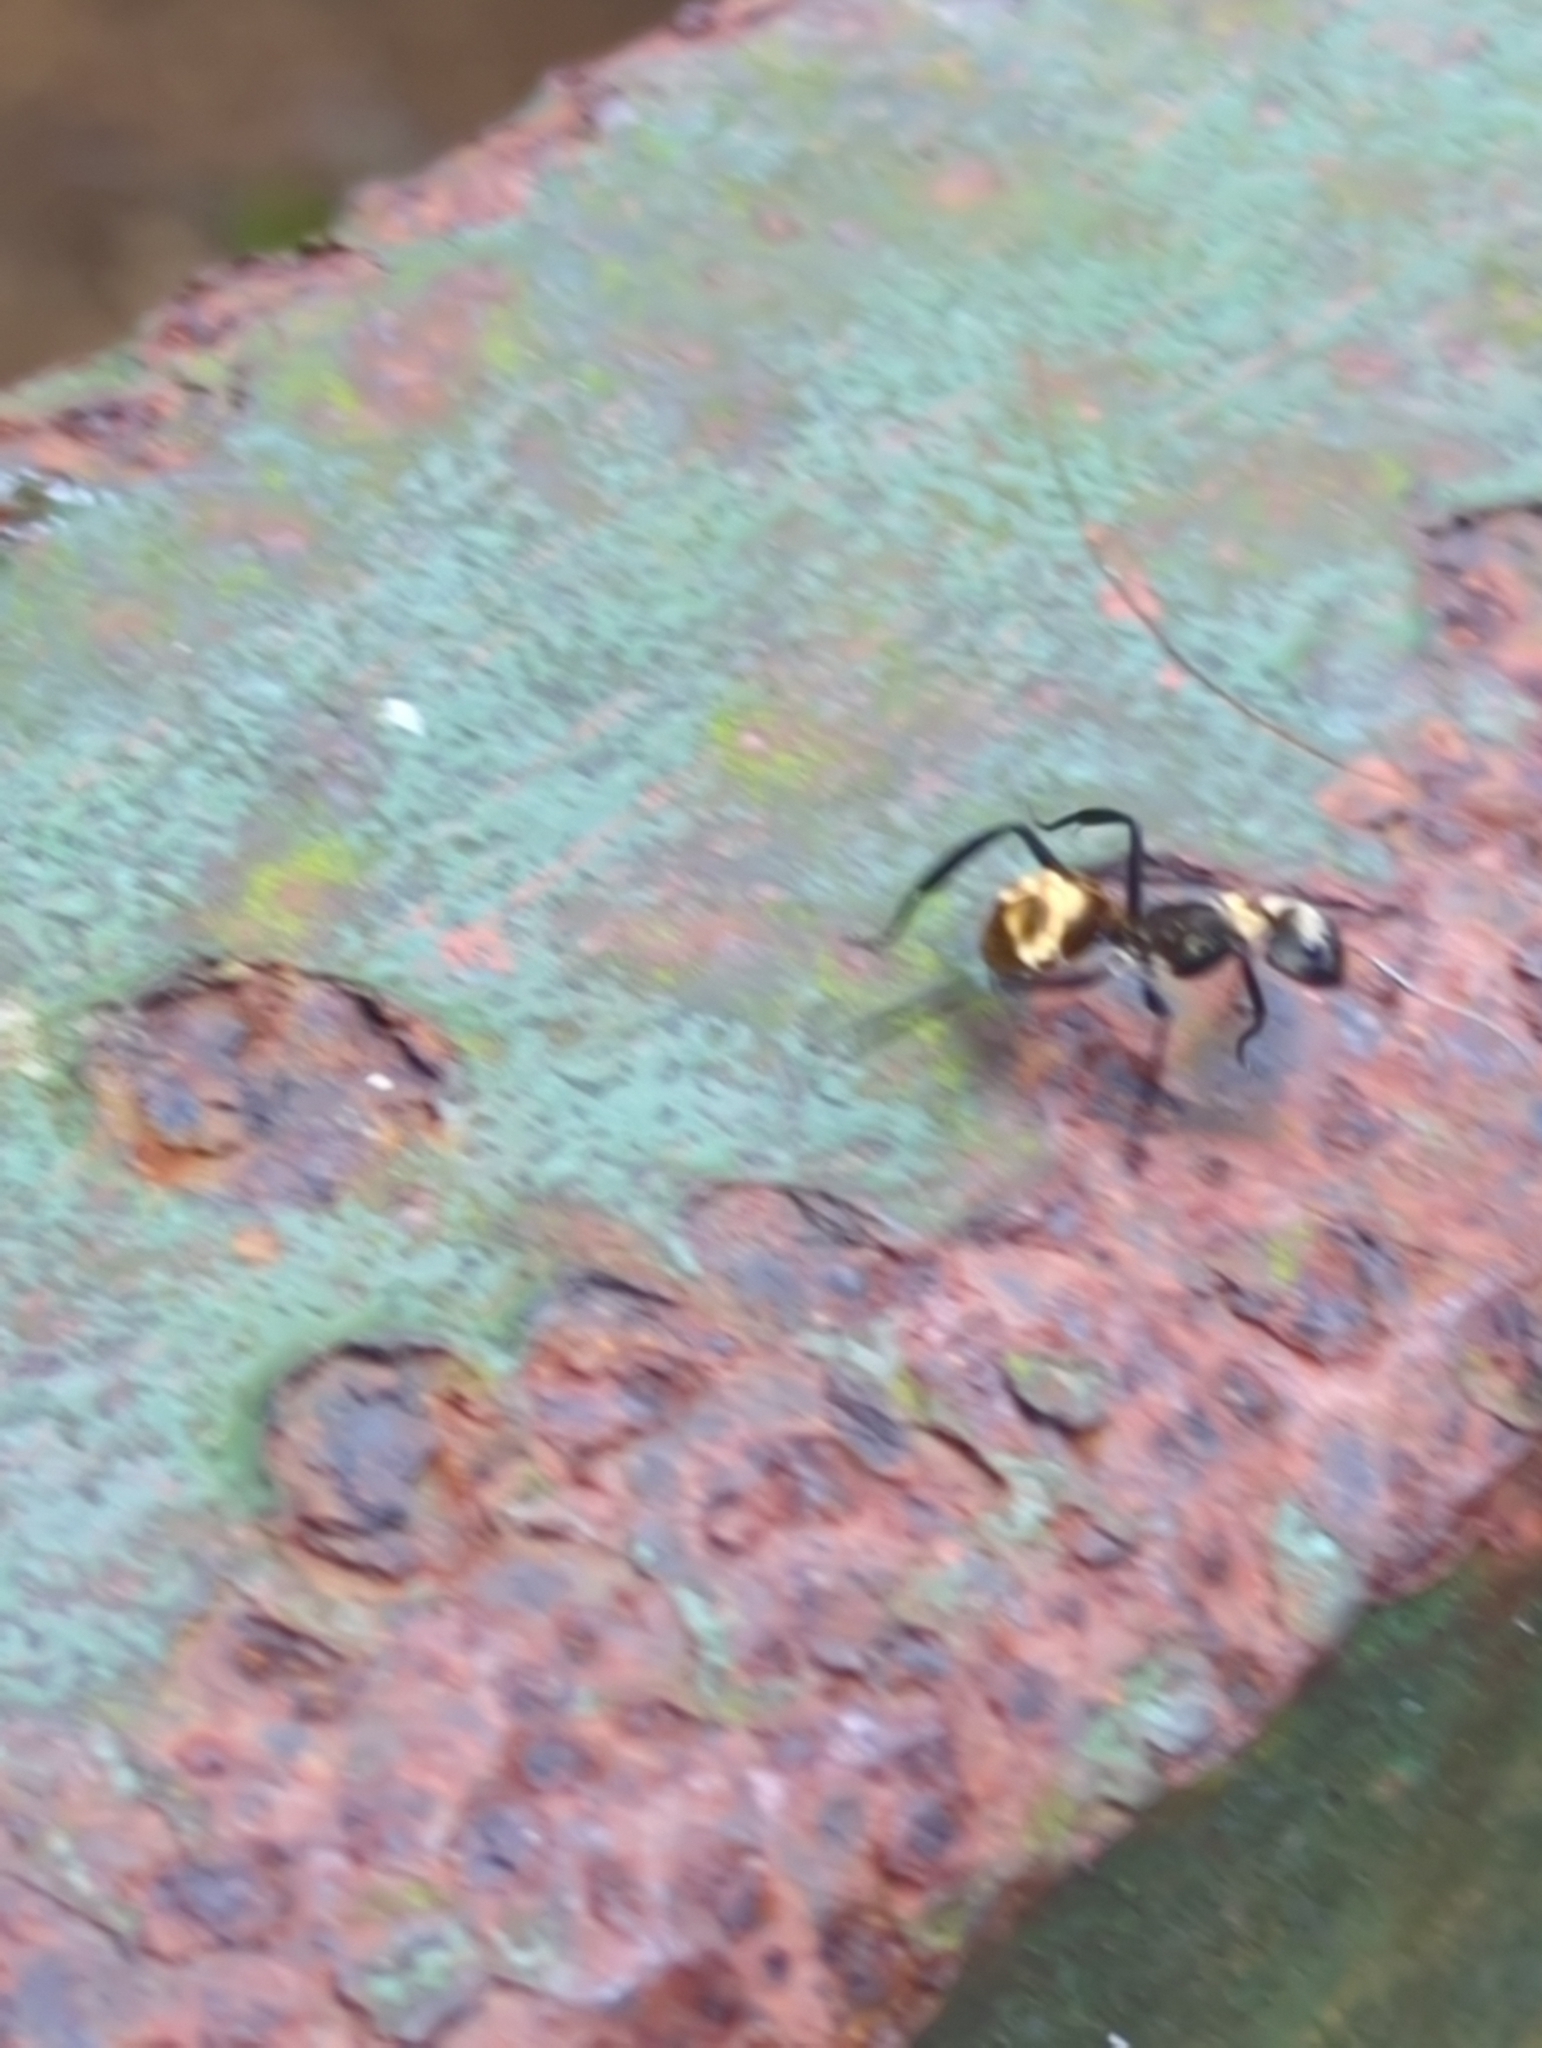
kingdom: Animalia
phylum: Arthropoda
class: Insecta
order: Hymenoptera
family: Formicidae
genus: Camponotus
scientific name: Camponotus sericeiventris
